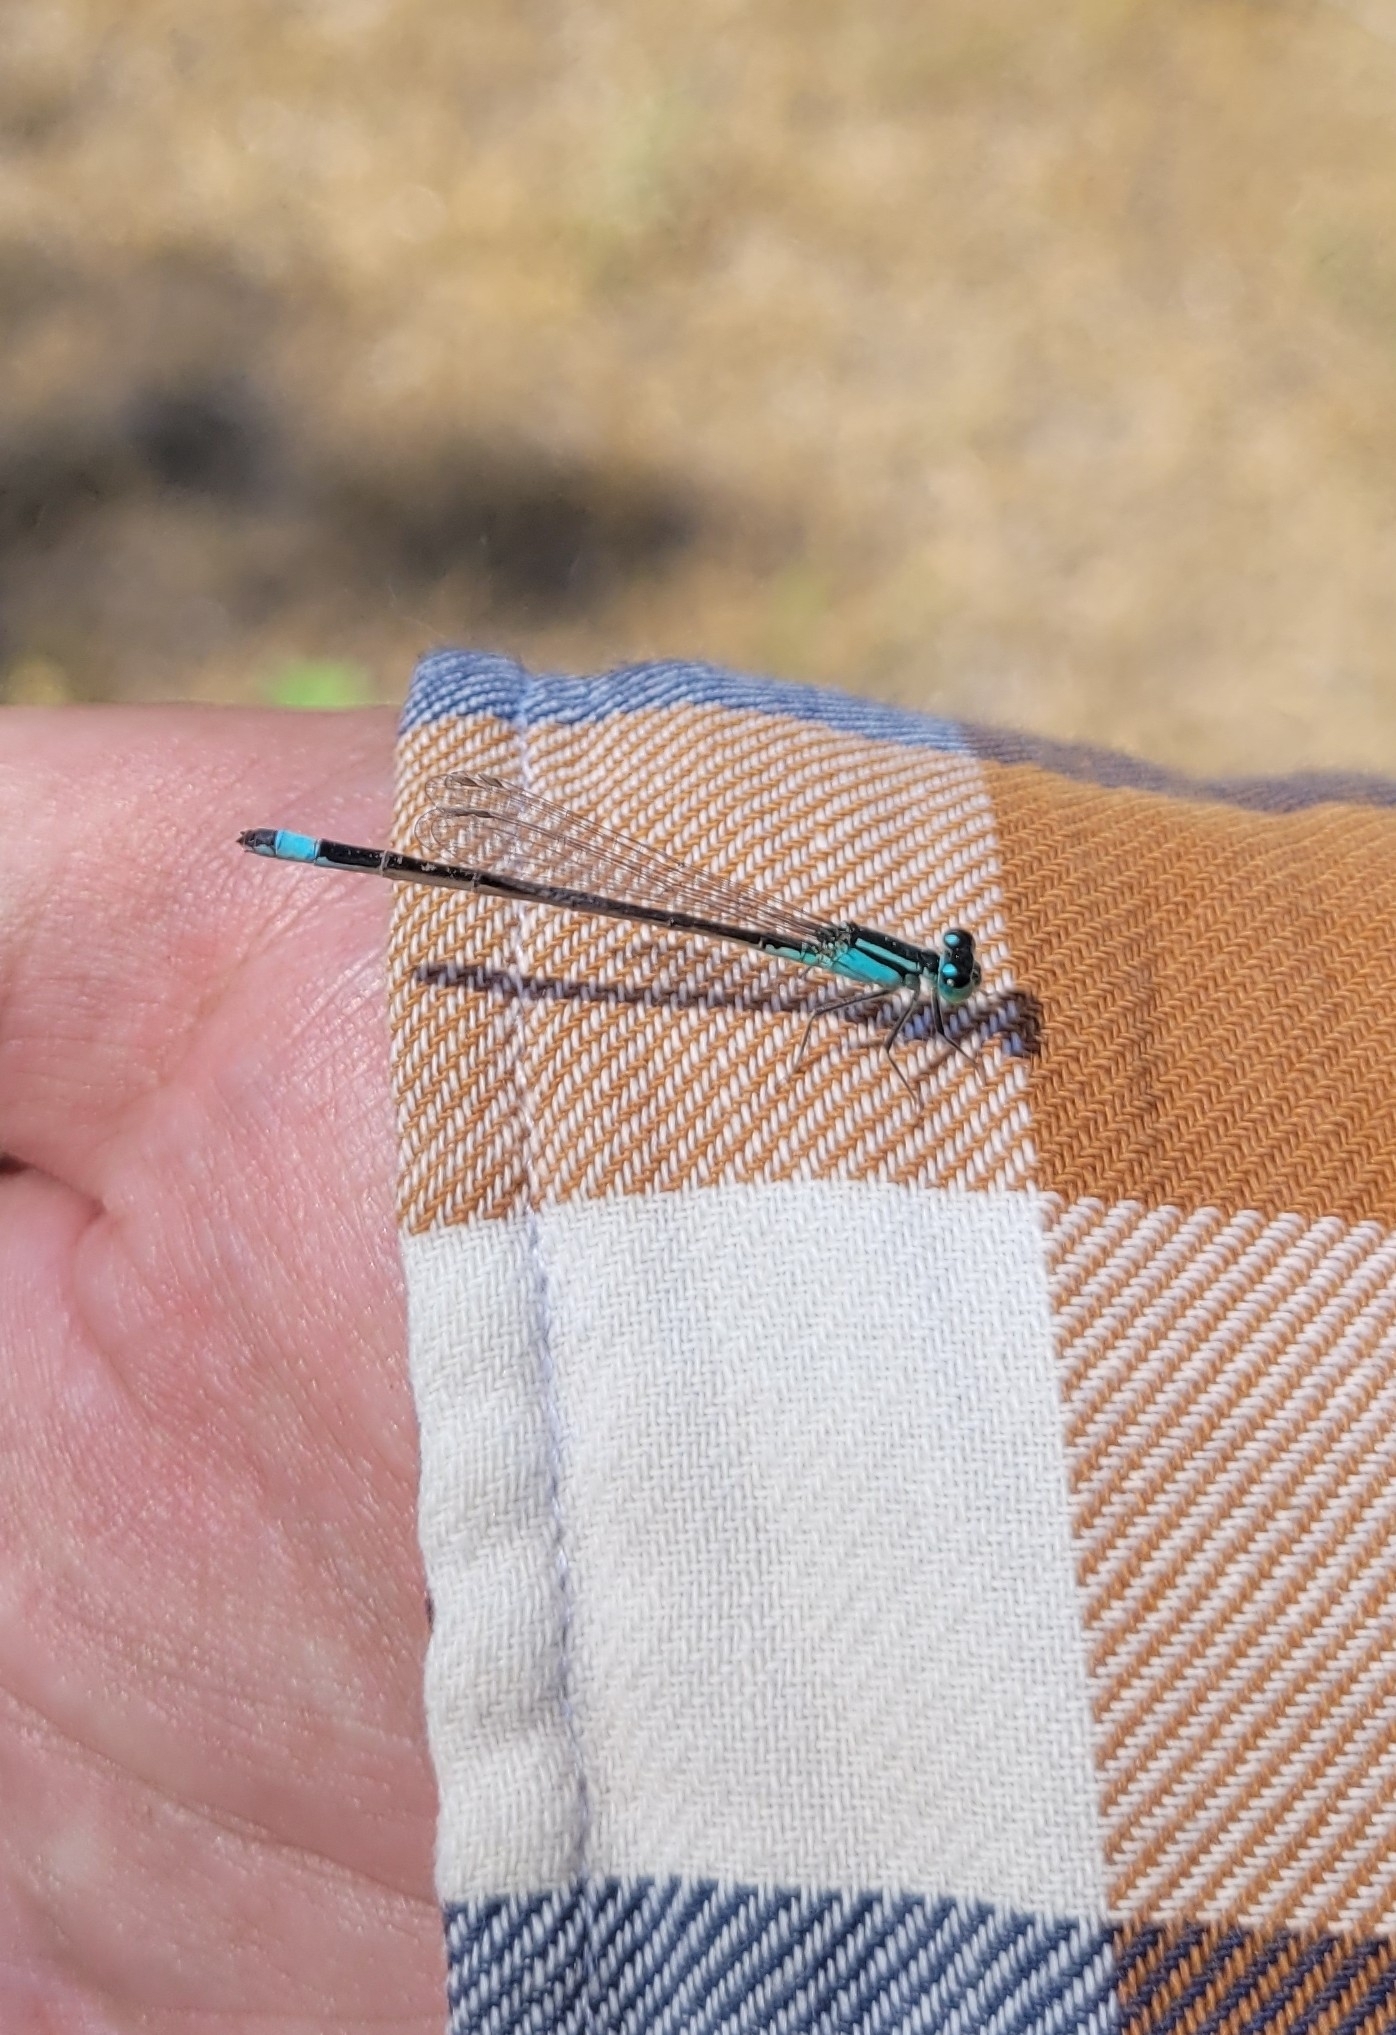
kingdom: Animalia
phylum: Arthropoda
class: Insecta
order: Odonata
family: Coenagrionidae
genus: Ischnura
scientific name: Ischnura elegans
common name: Blue-tailed damselfly
